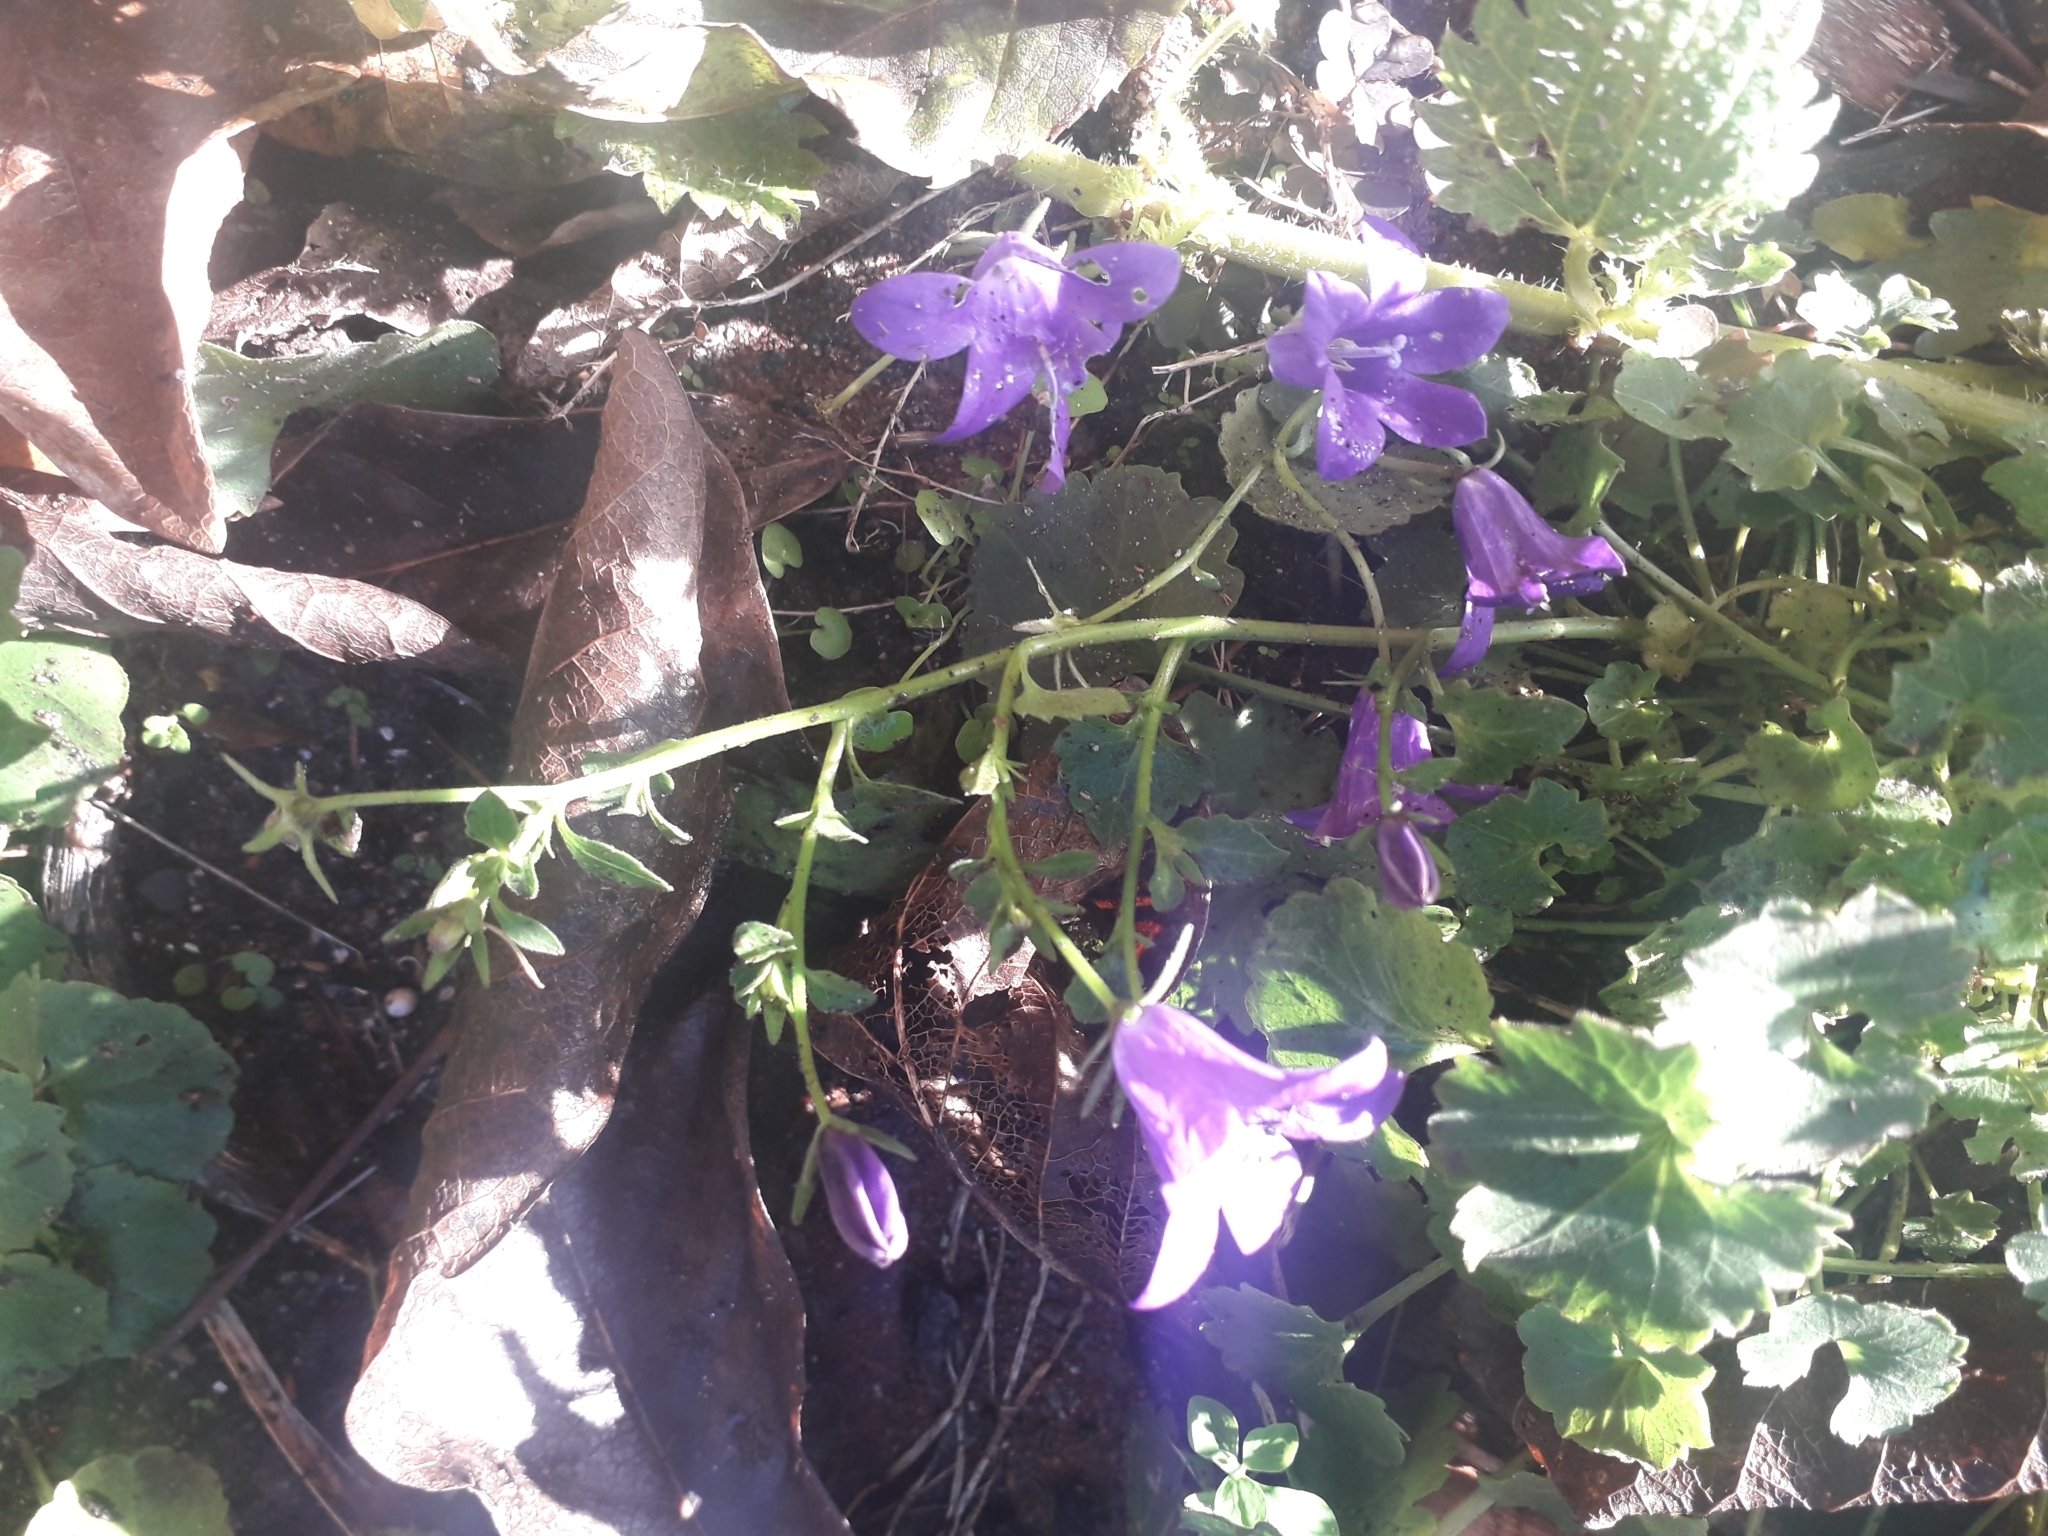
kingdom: Plantae
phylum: Tracheophyta
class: Magnoliopsida
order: Asterales
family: Campanulaceae
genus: Campanula
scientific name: Campanula poscharskyana
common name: Trailing bellflower
